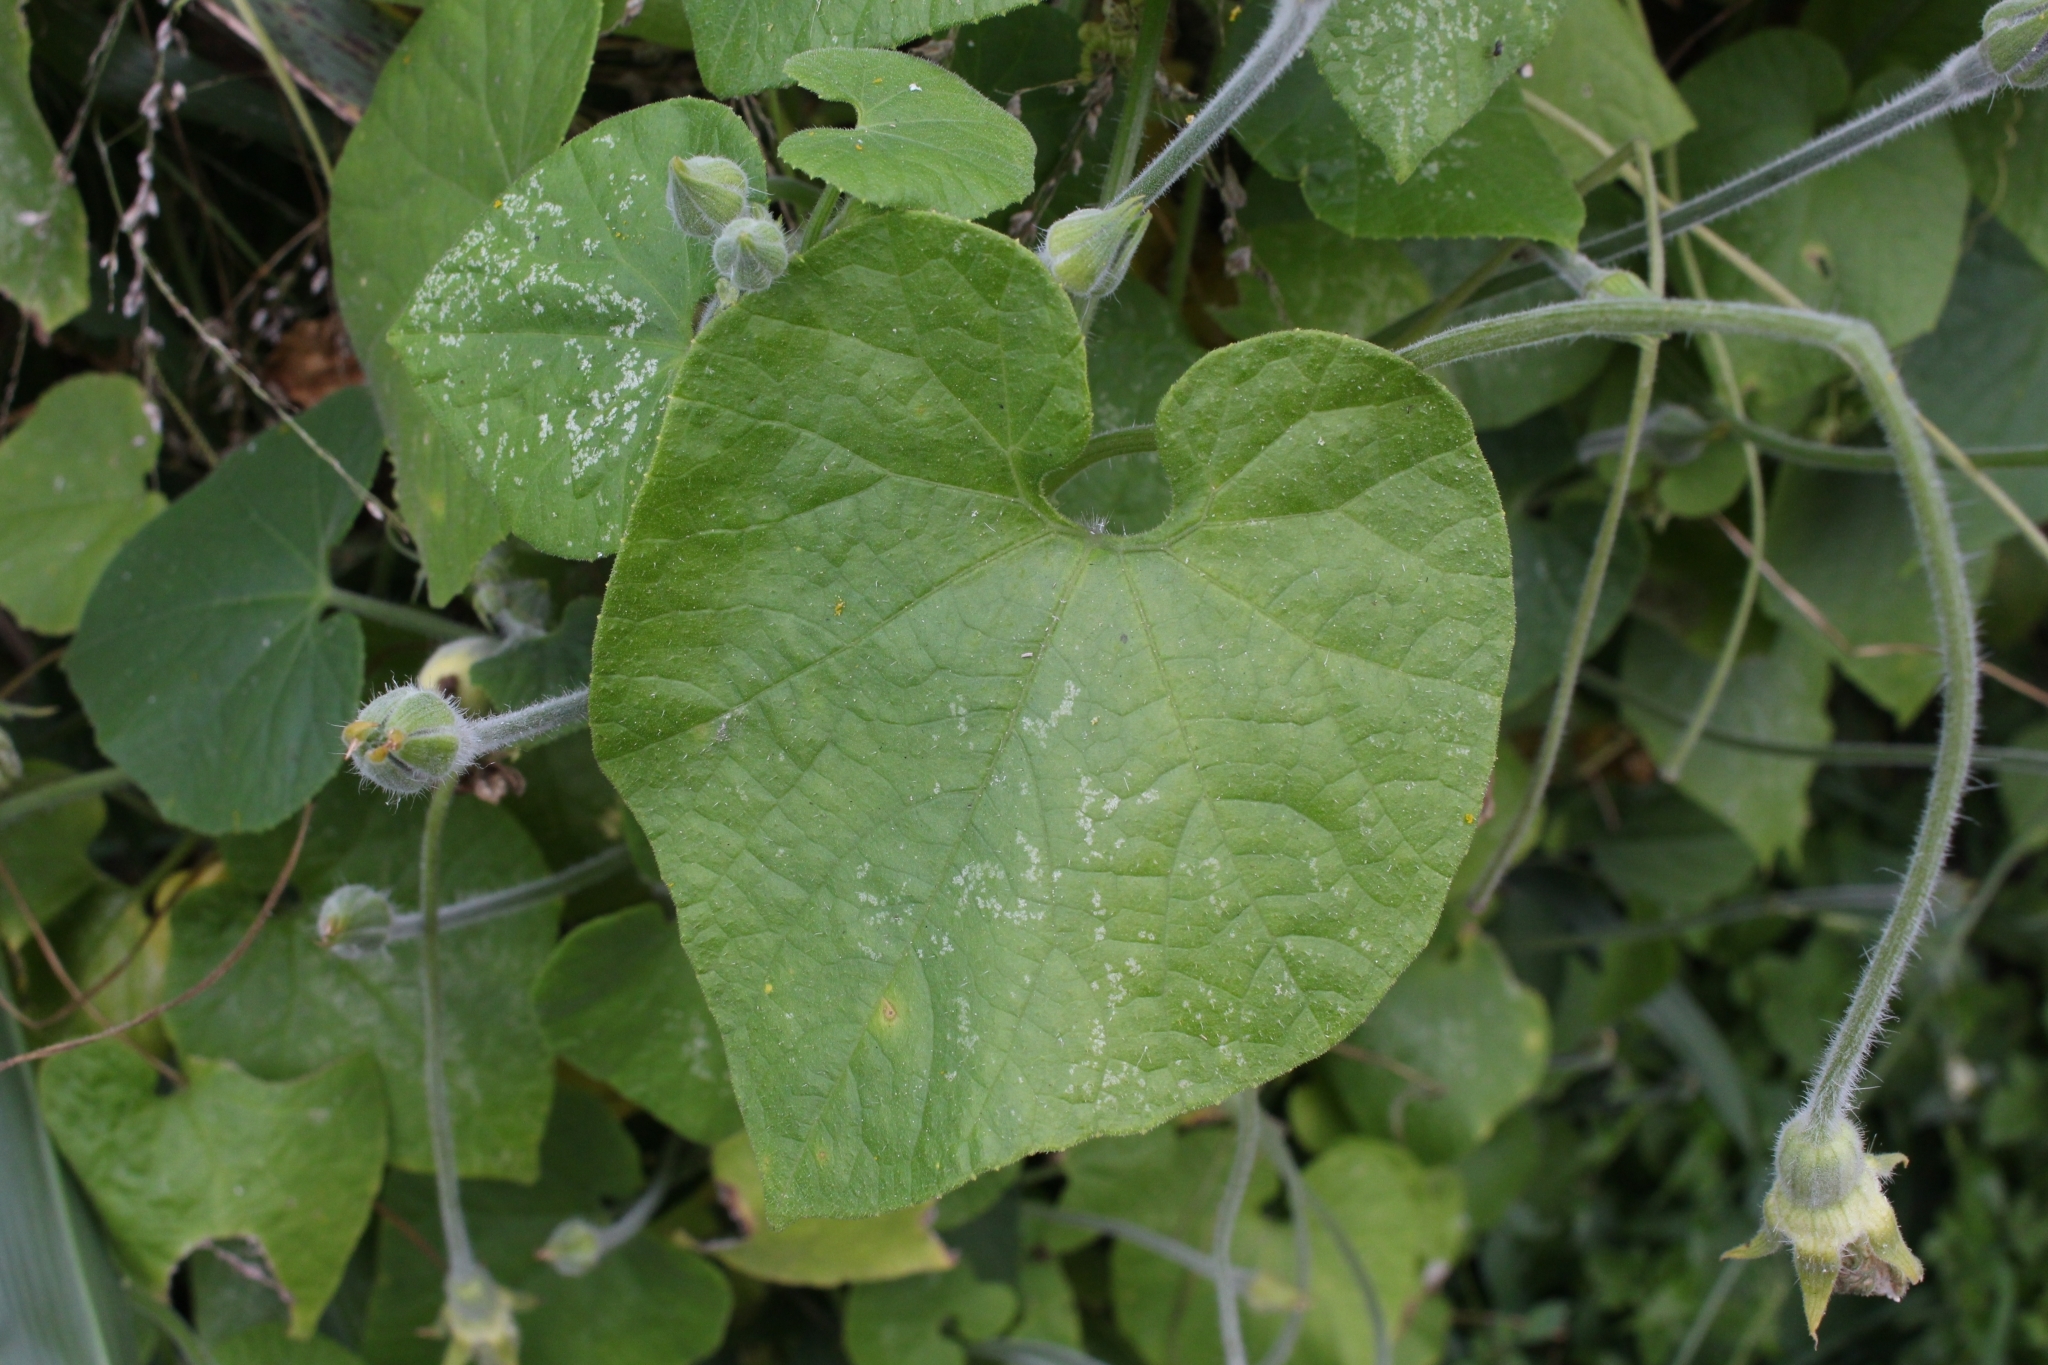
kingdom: Plantae
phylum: Tracheophyta
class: Magnoliopsida
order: Cucurbitales
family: Cucurbitaceae
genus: Polyclathra
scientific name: Polyclathra cucumerina
